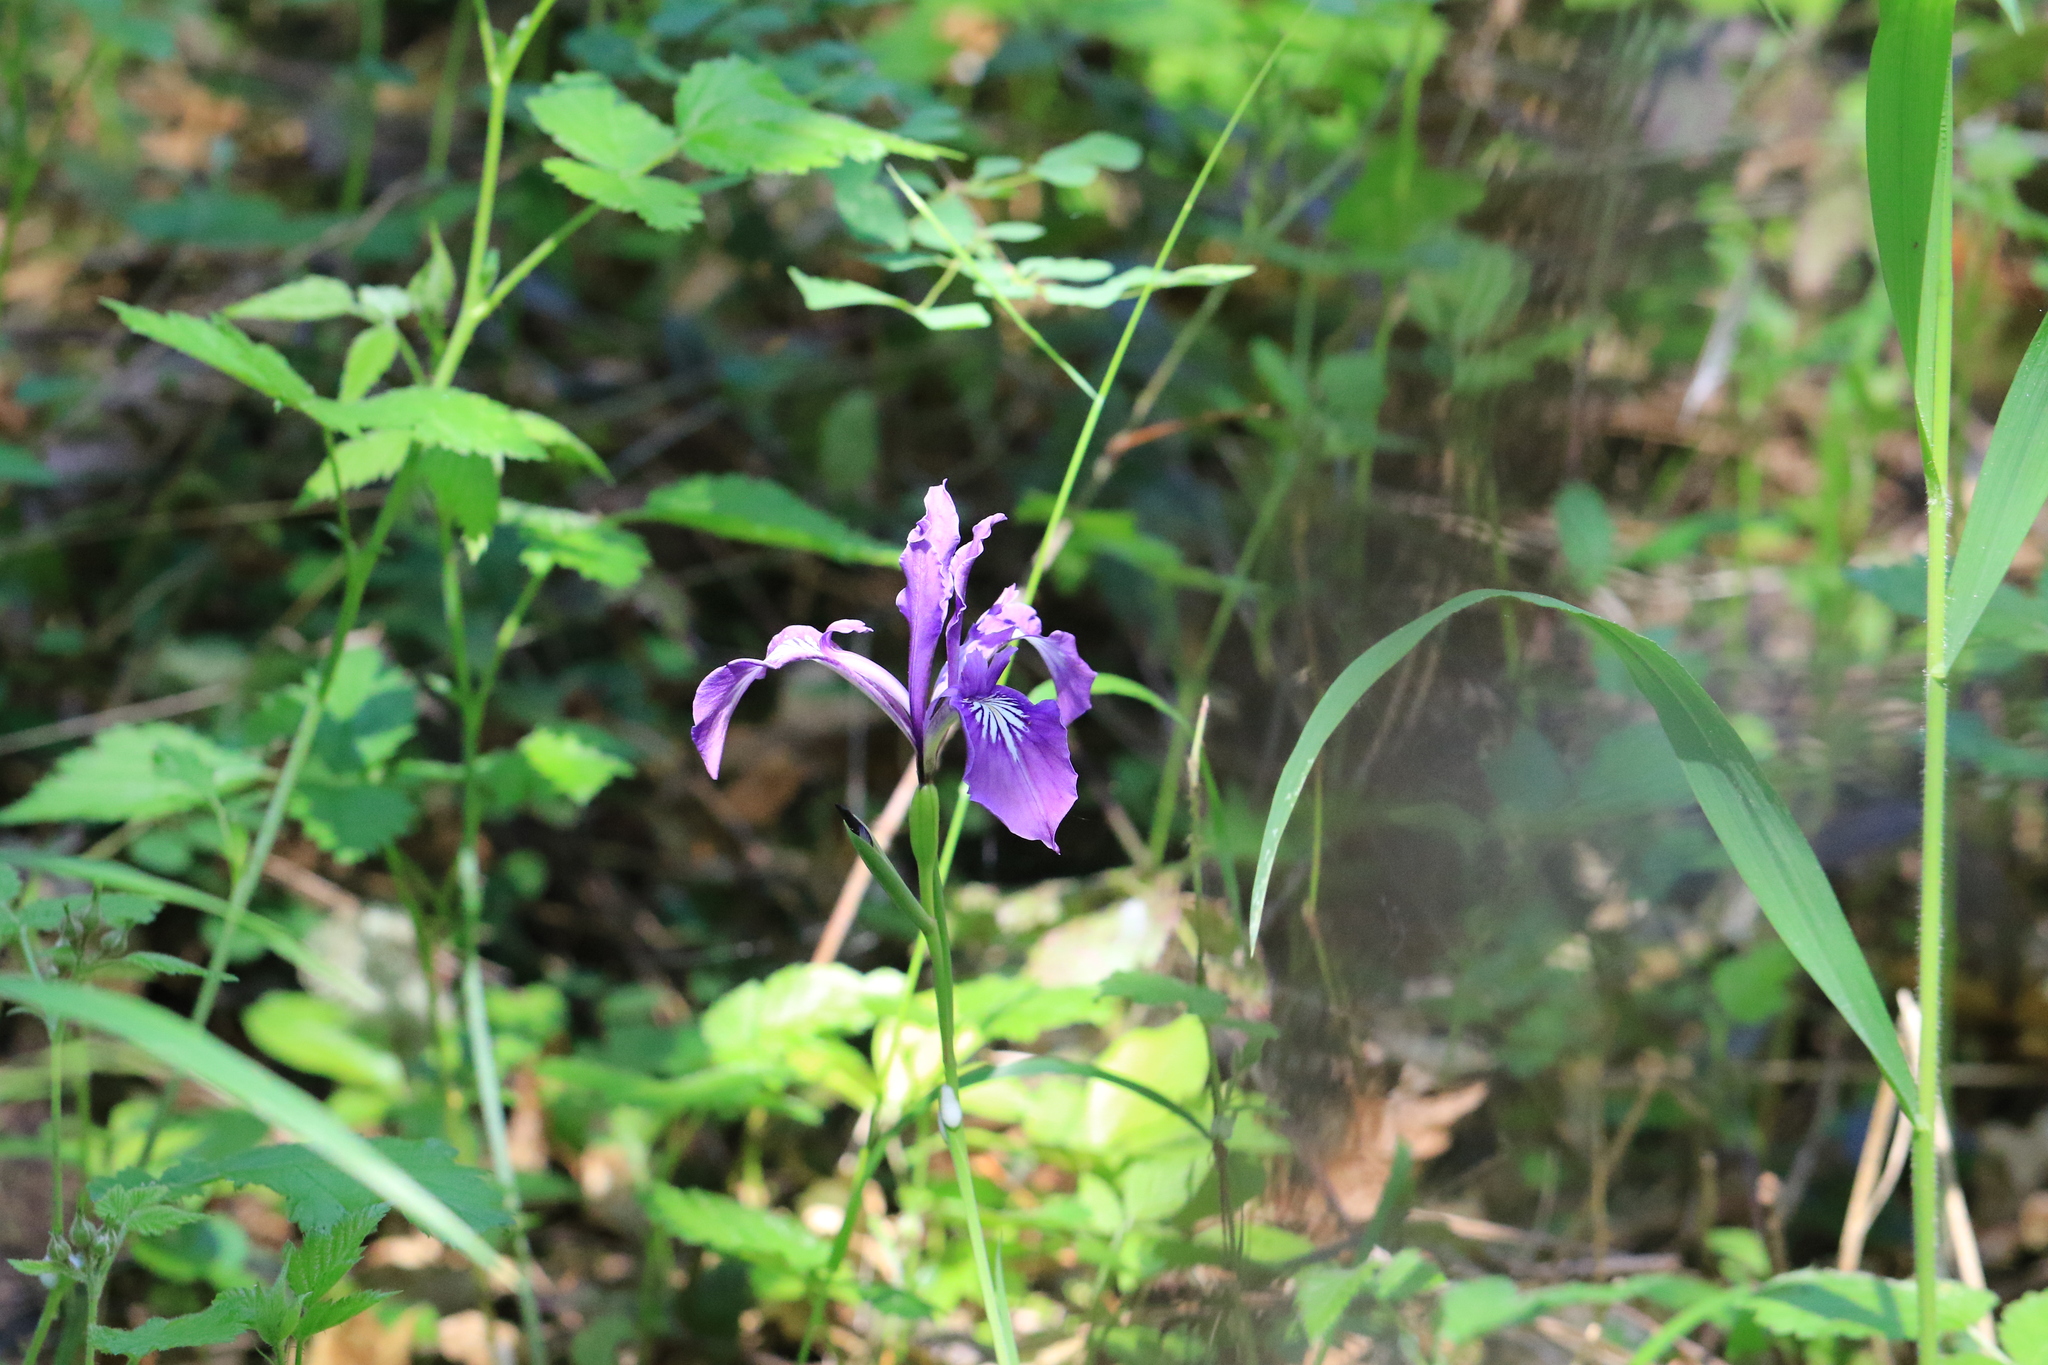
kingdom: Plantae
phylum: Tracheophyta
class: Liliopsida
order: Asparagales
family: Iridaceae
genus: Iris
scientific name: Iris tenax
